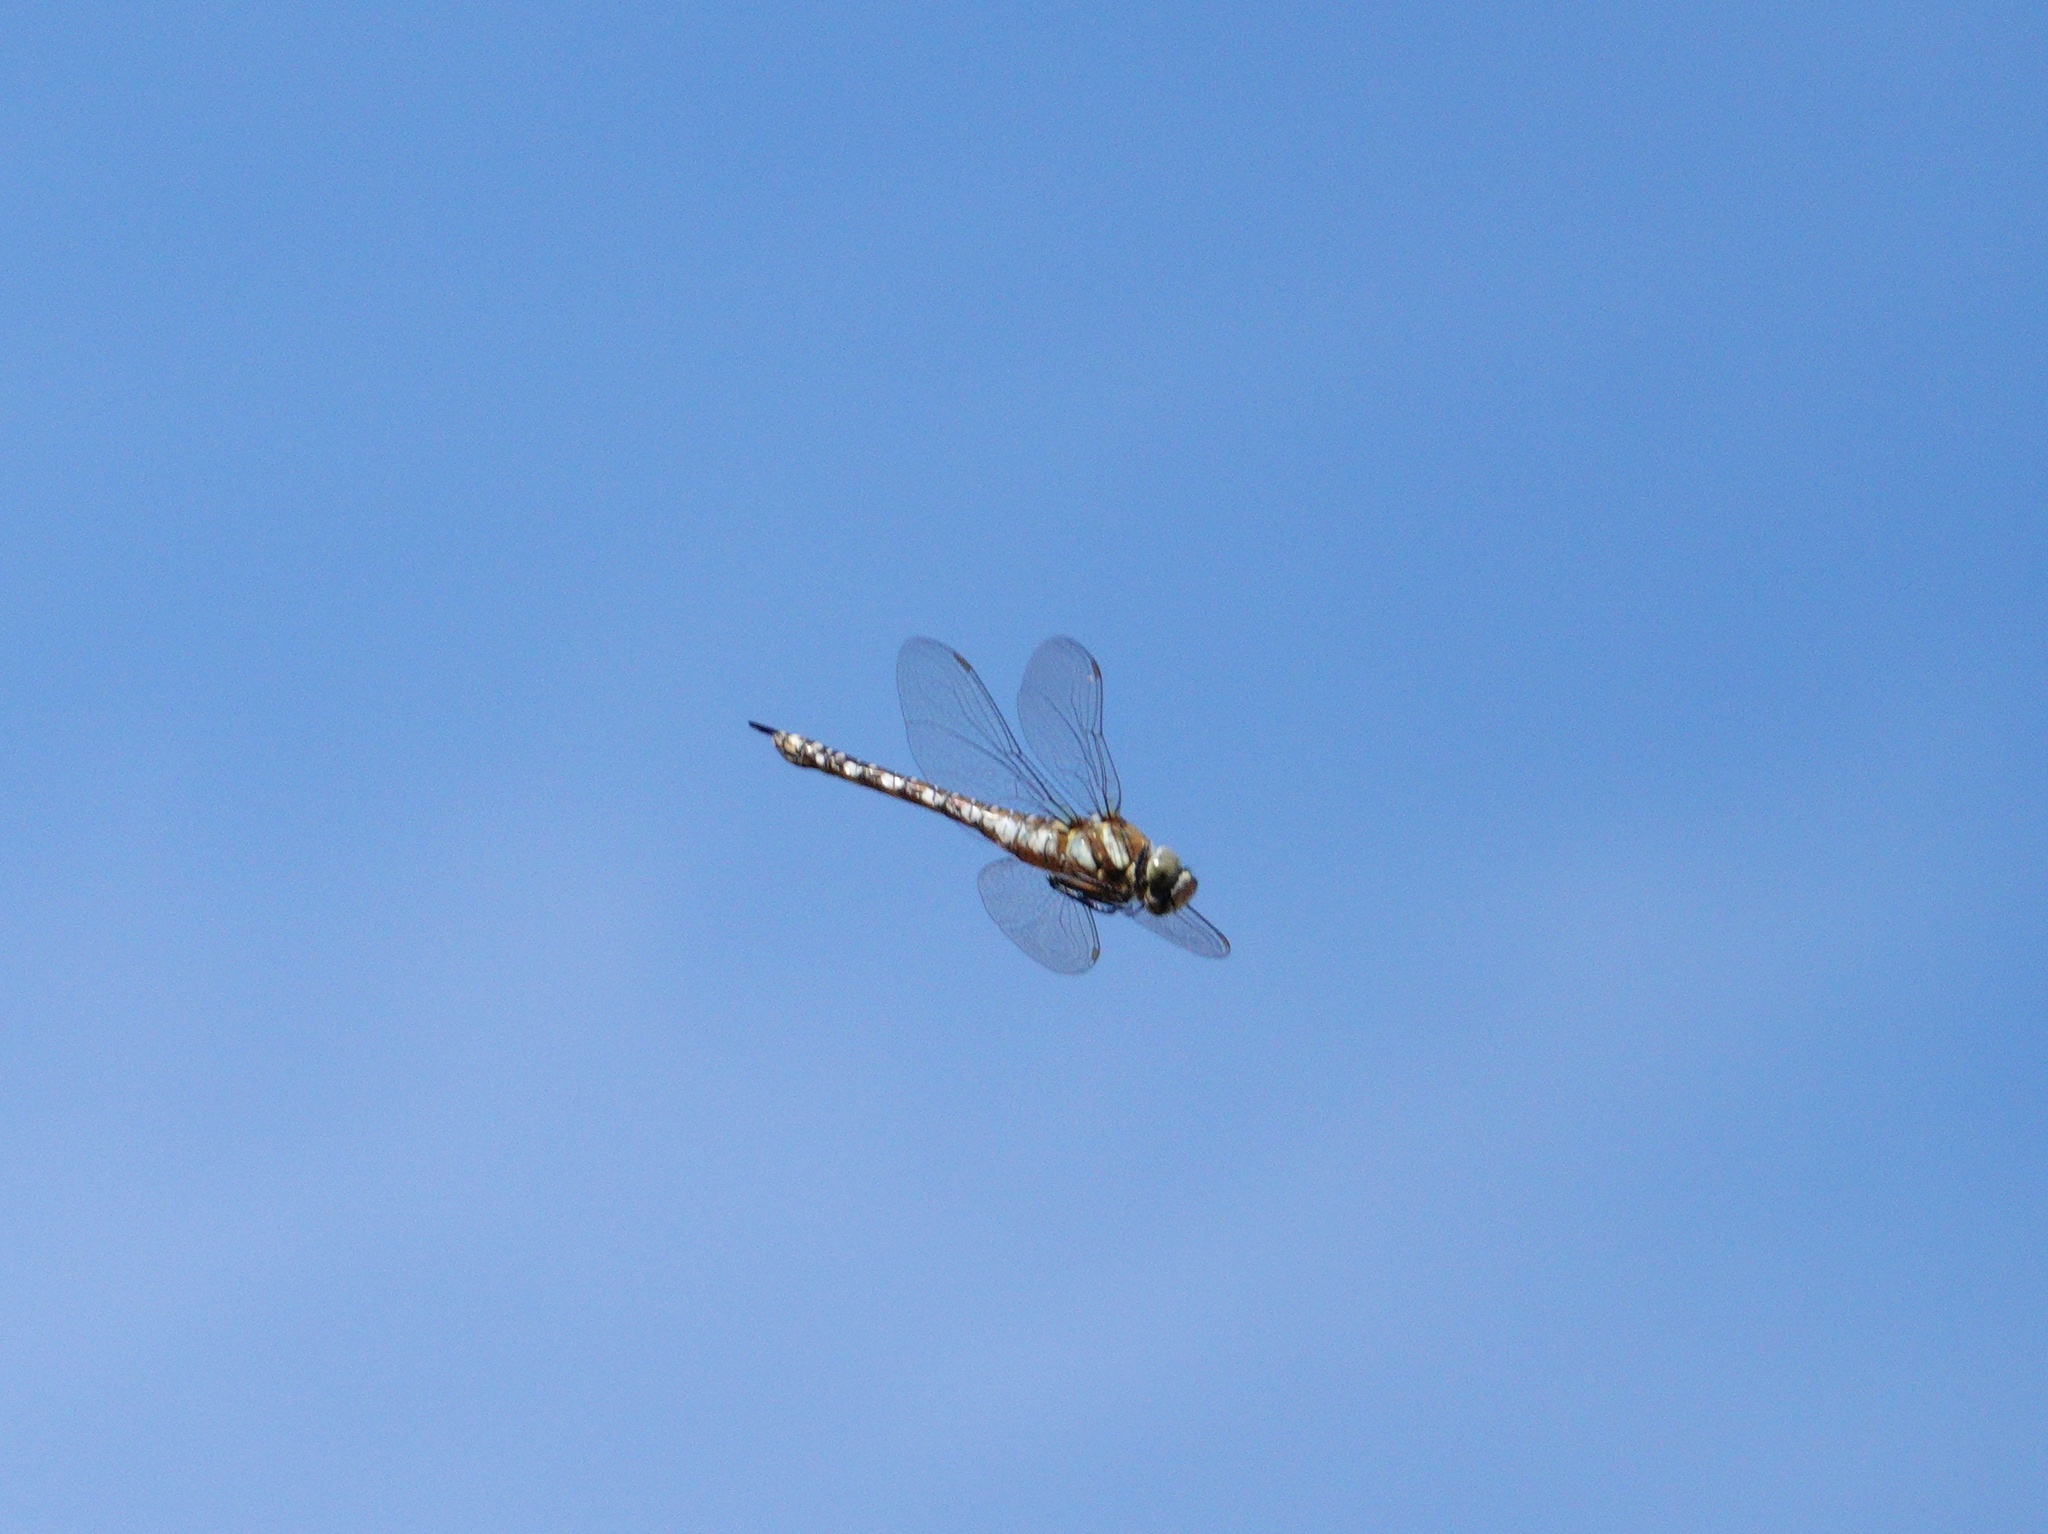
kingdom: Animalia
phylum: Arthropoda
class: Insecta
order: Odonata
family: Aeshnidae
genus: Aeshna
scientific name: Aeshna mixta
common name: Migrant hawker
